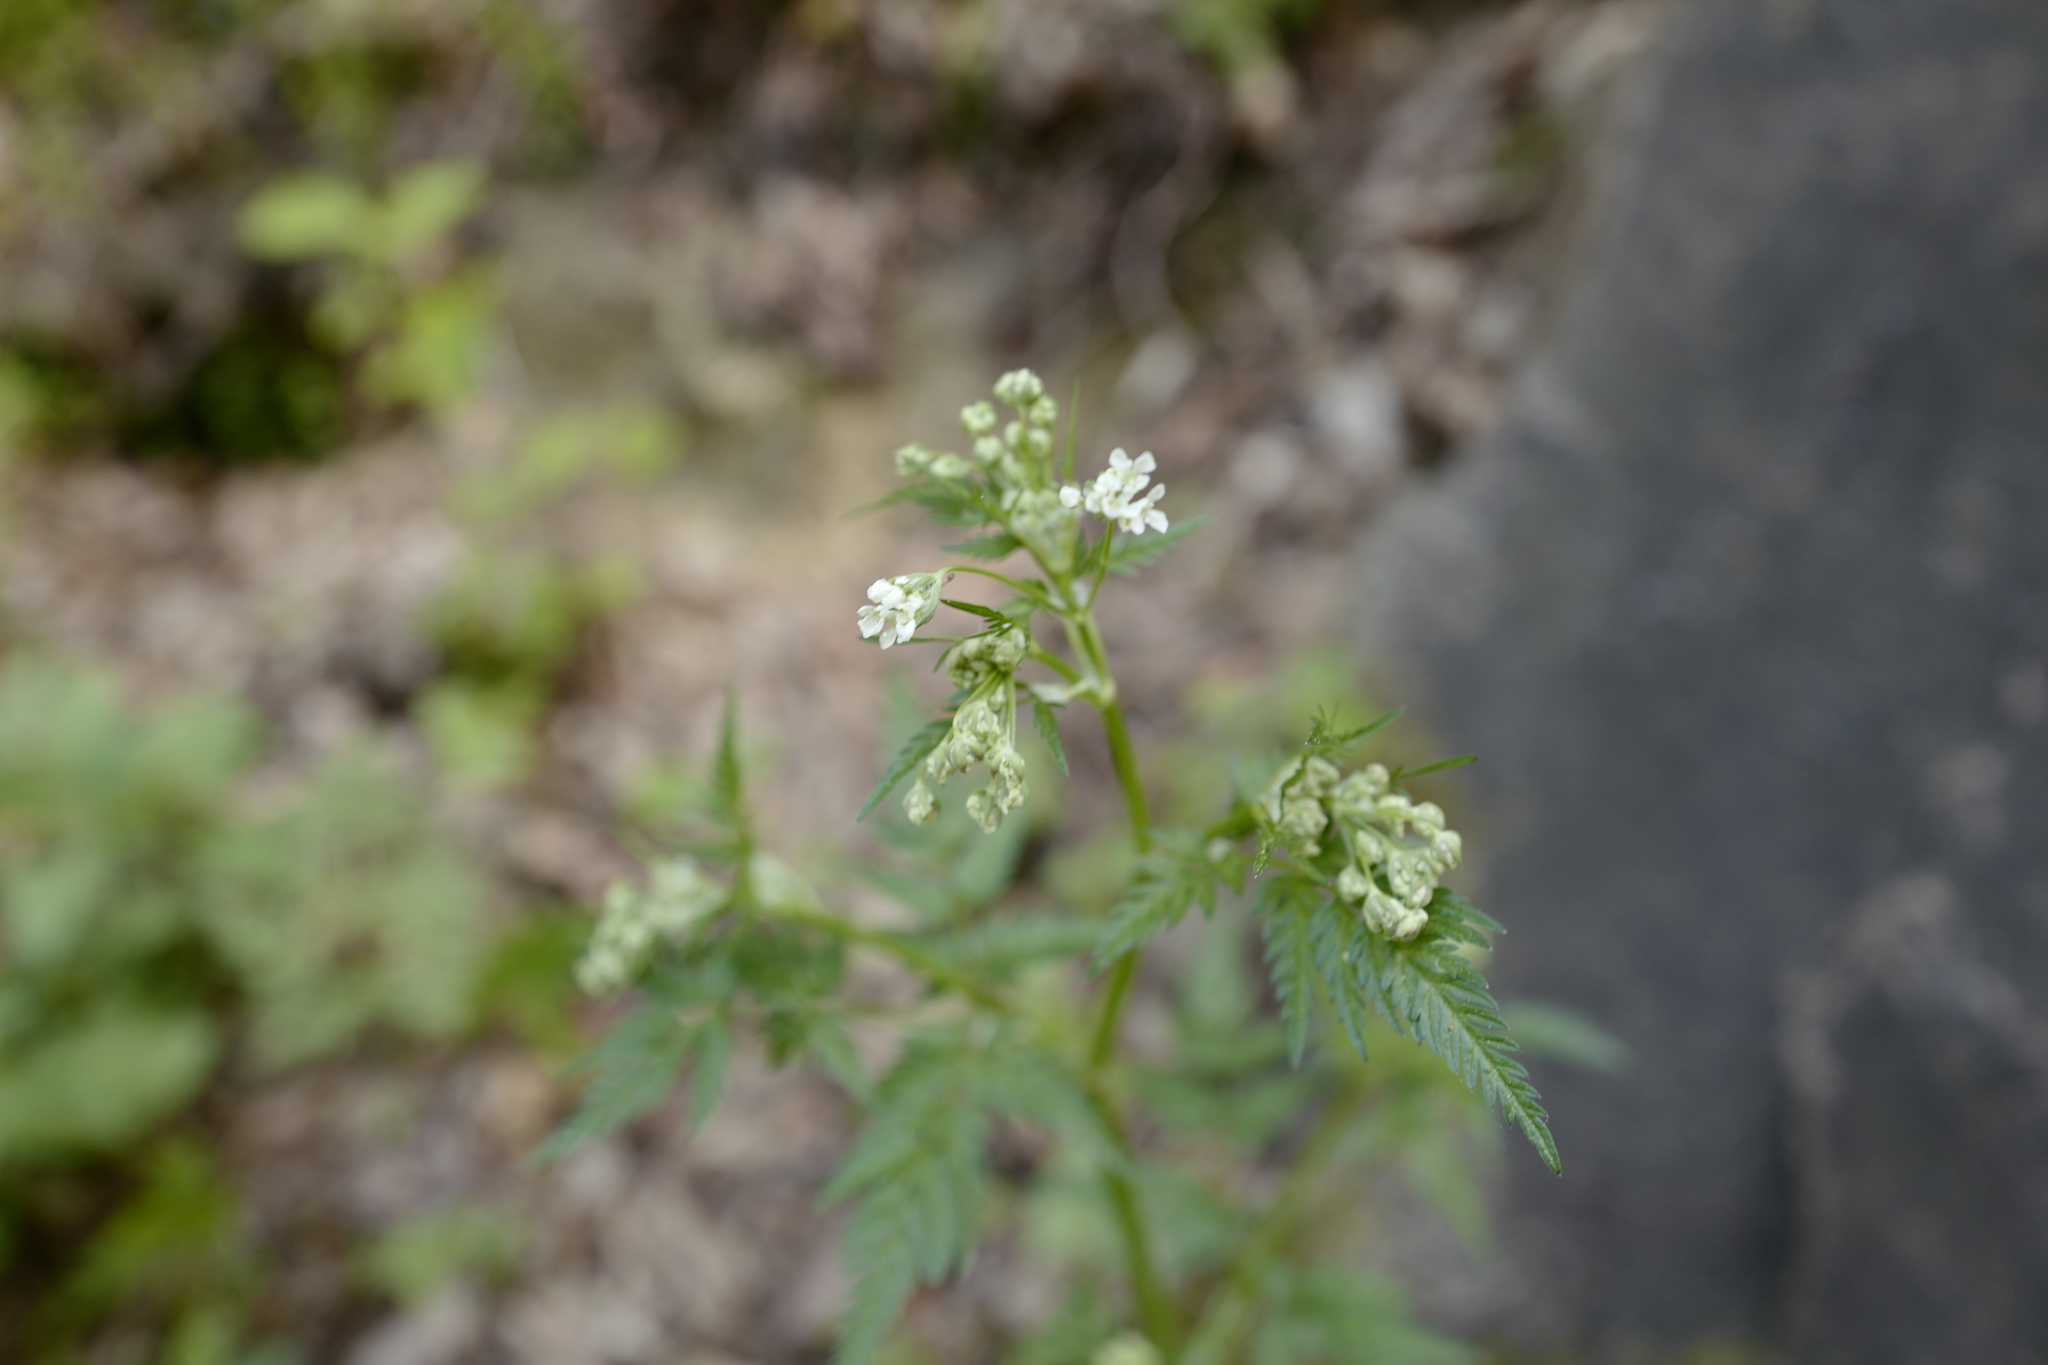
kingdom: Plantae
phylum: Tracheophyta
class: Magnoliopsida
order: Apiales
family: Apiaceae
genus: Anthriscus
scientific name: Anthriscus sylvestris
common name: Cow parsley
